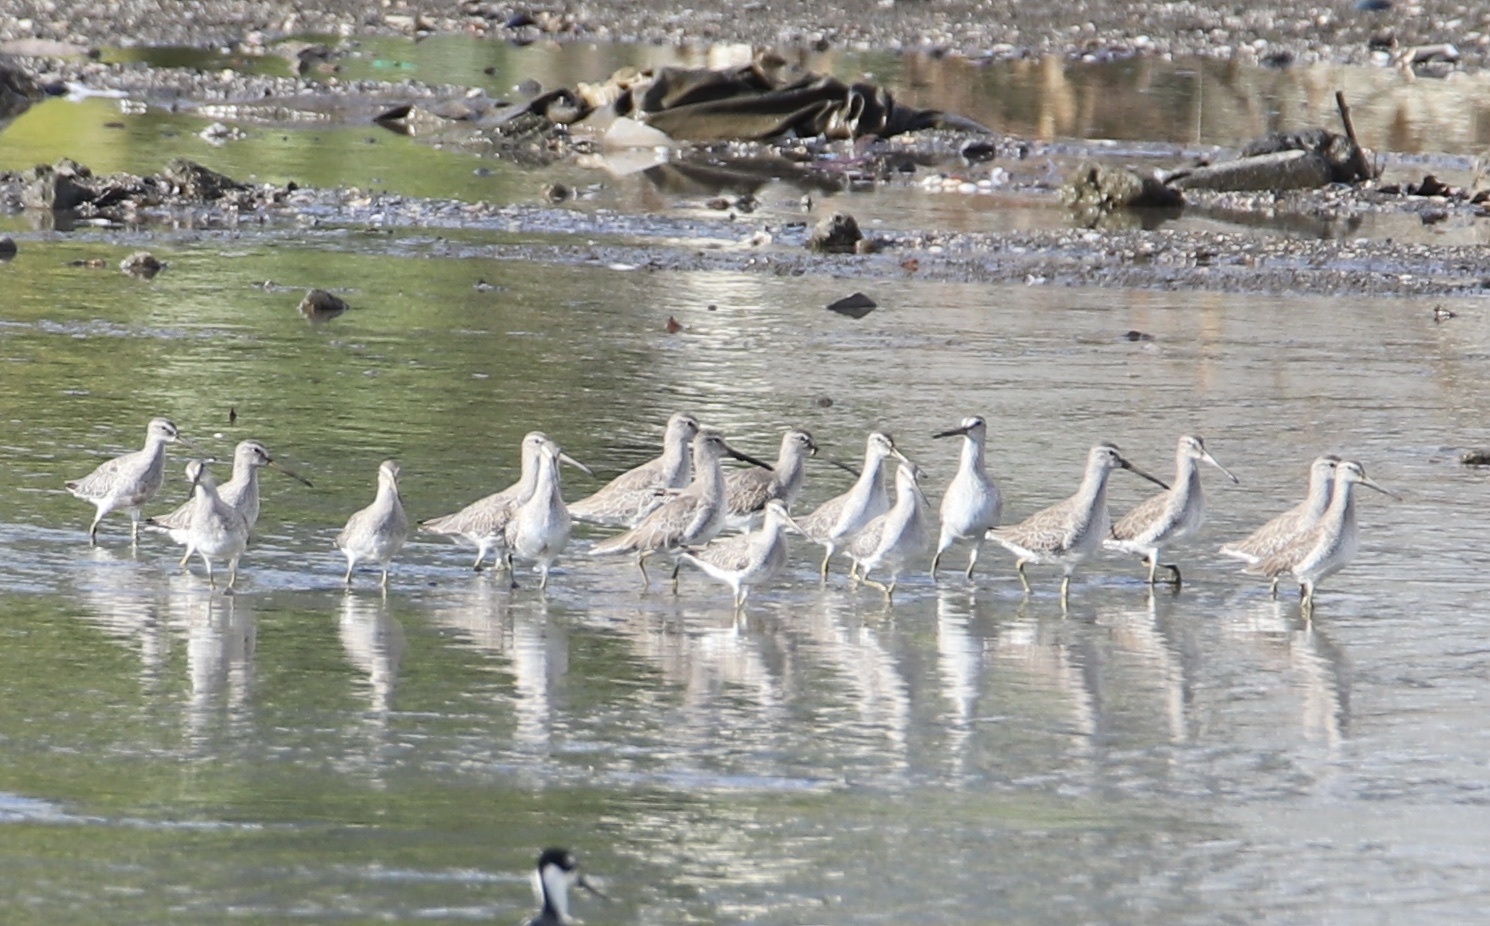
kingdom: Animalia
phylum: Chordata
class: Aves
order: Charadriiformes
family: Scolopacidae
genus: Limnodromus
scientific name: Limnodromus griseus
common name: Short-billed dowitcher
